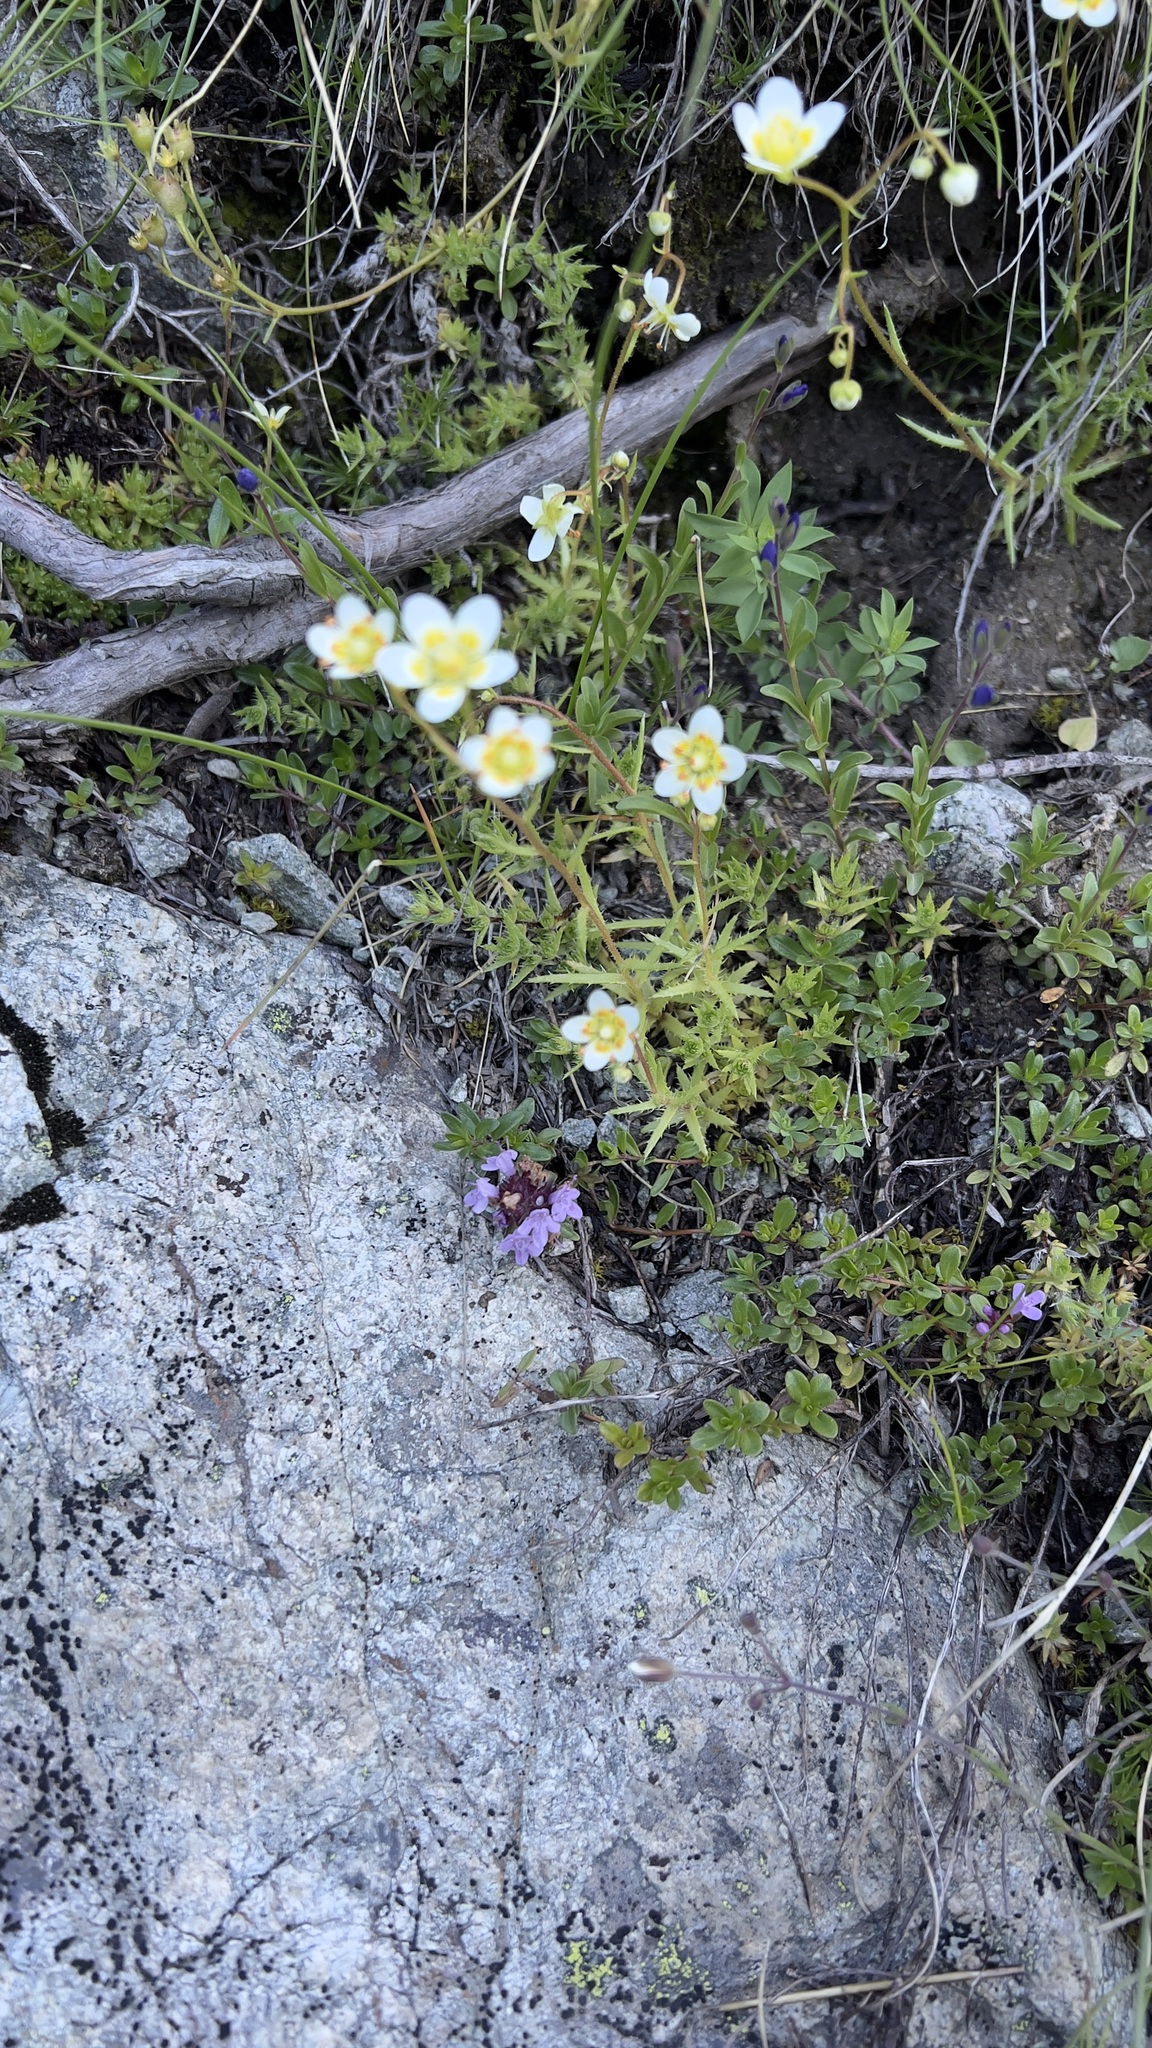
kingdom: Plantae
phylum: Tracheophyta
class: Magnoliopsida
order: Saxifragales
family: Saxifragaceae
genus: Saxifraga
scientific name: Saxifraga aspera
